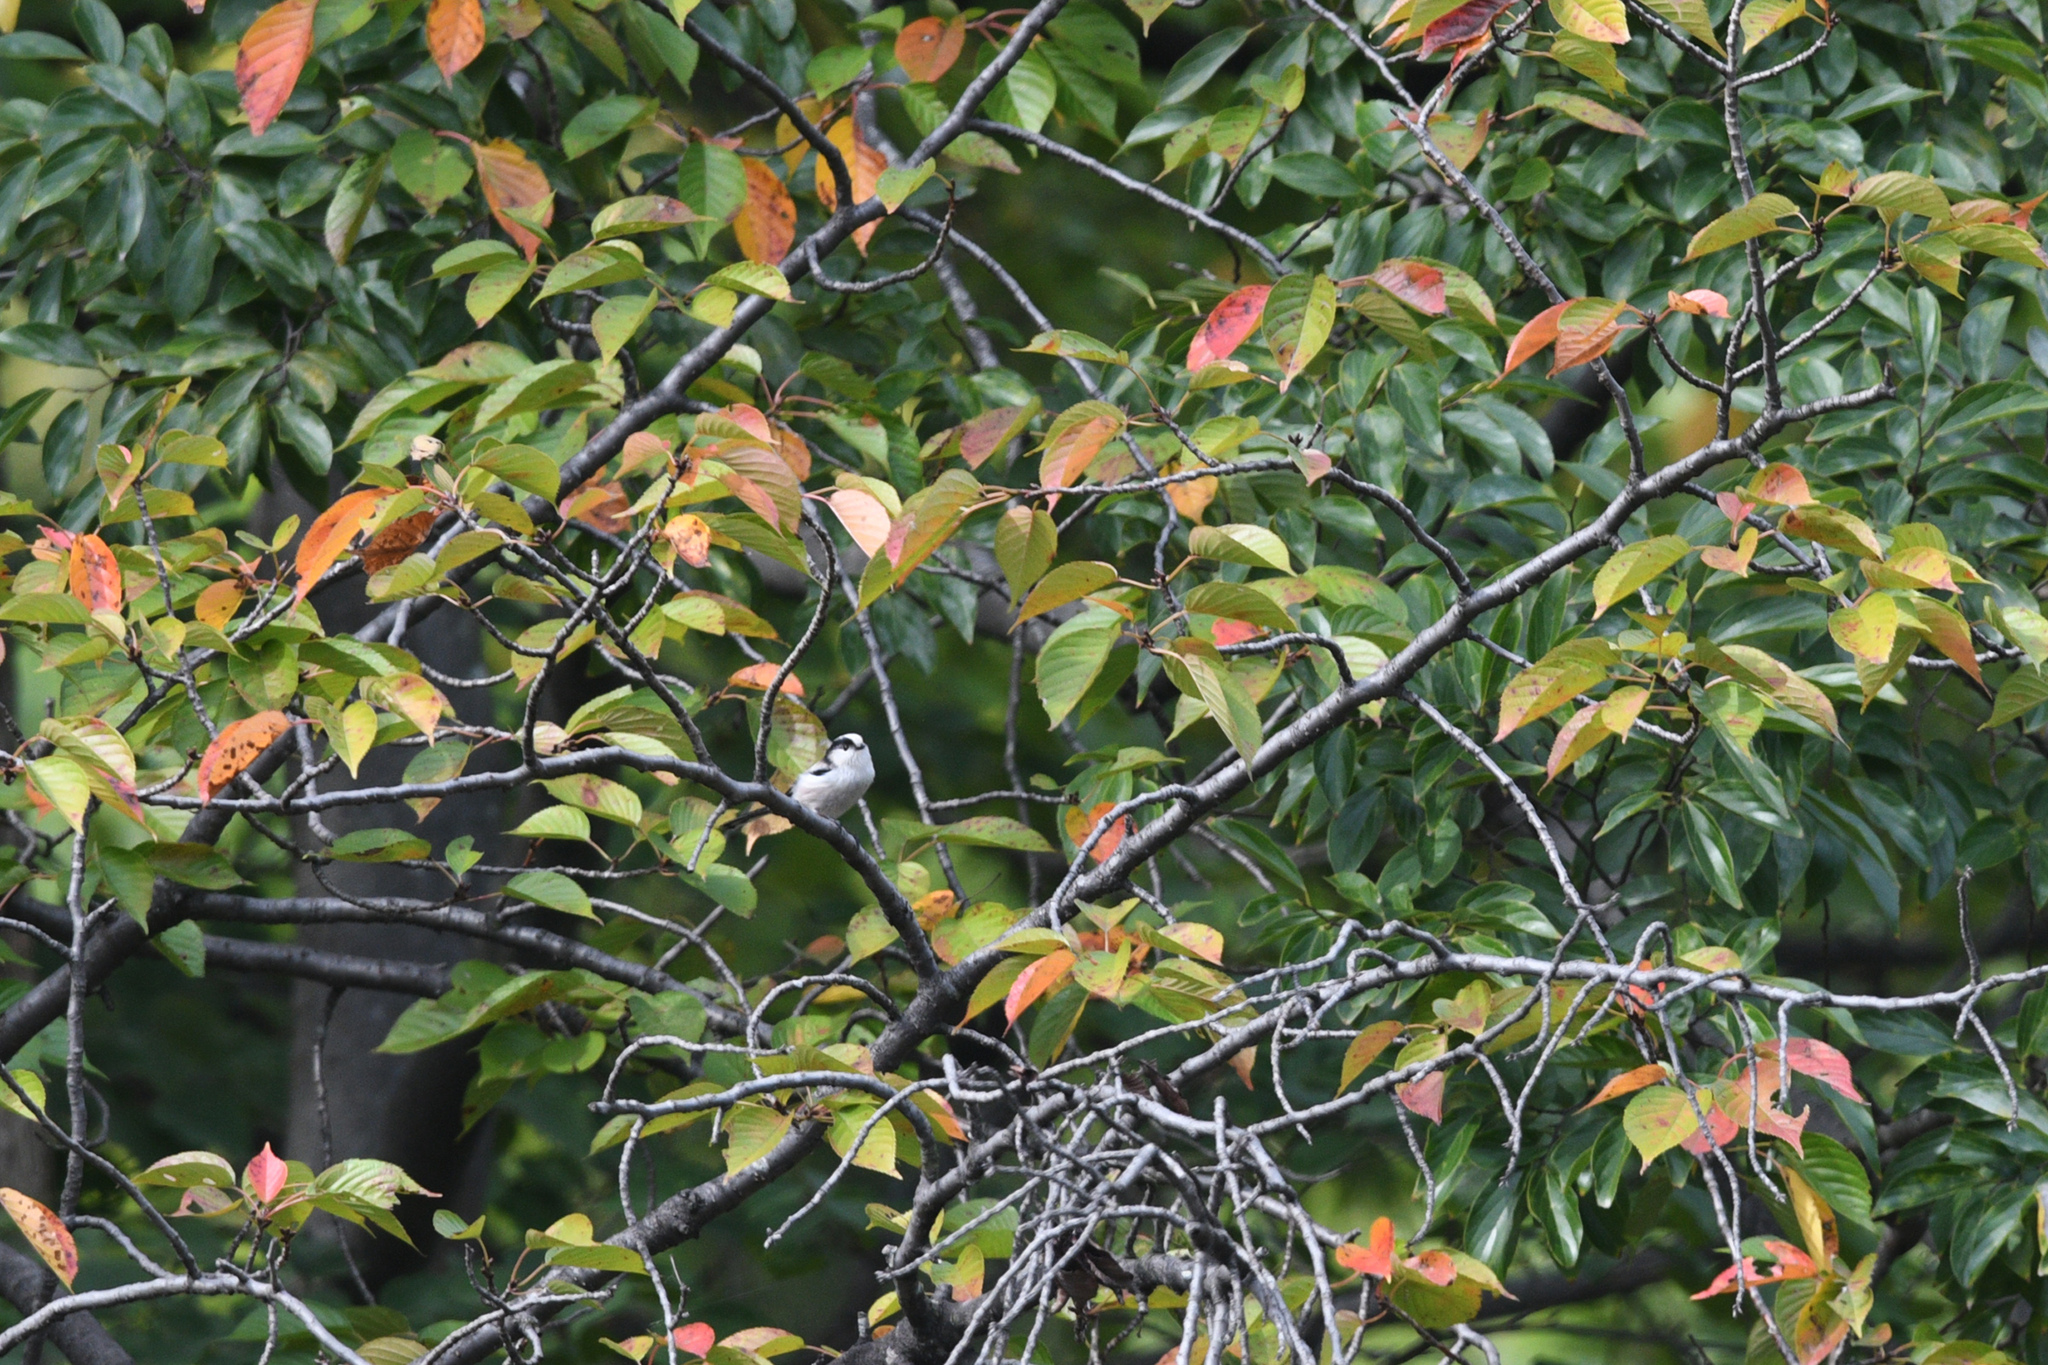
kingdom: Animalia
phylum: Chordata
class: Aves
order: Passeriformes
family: Aegithalidae
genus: Aegithalos
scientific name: Aegithalos caudatus
